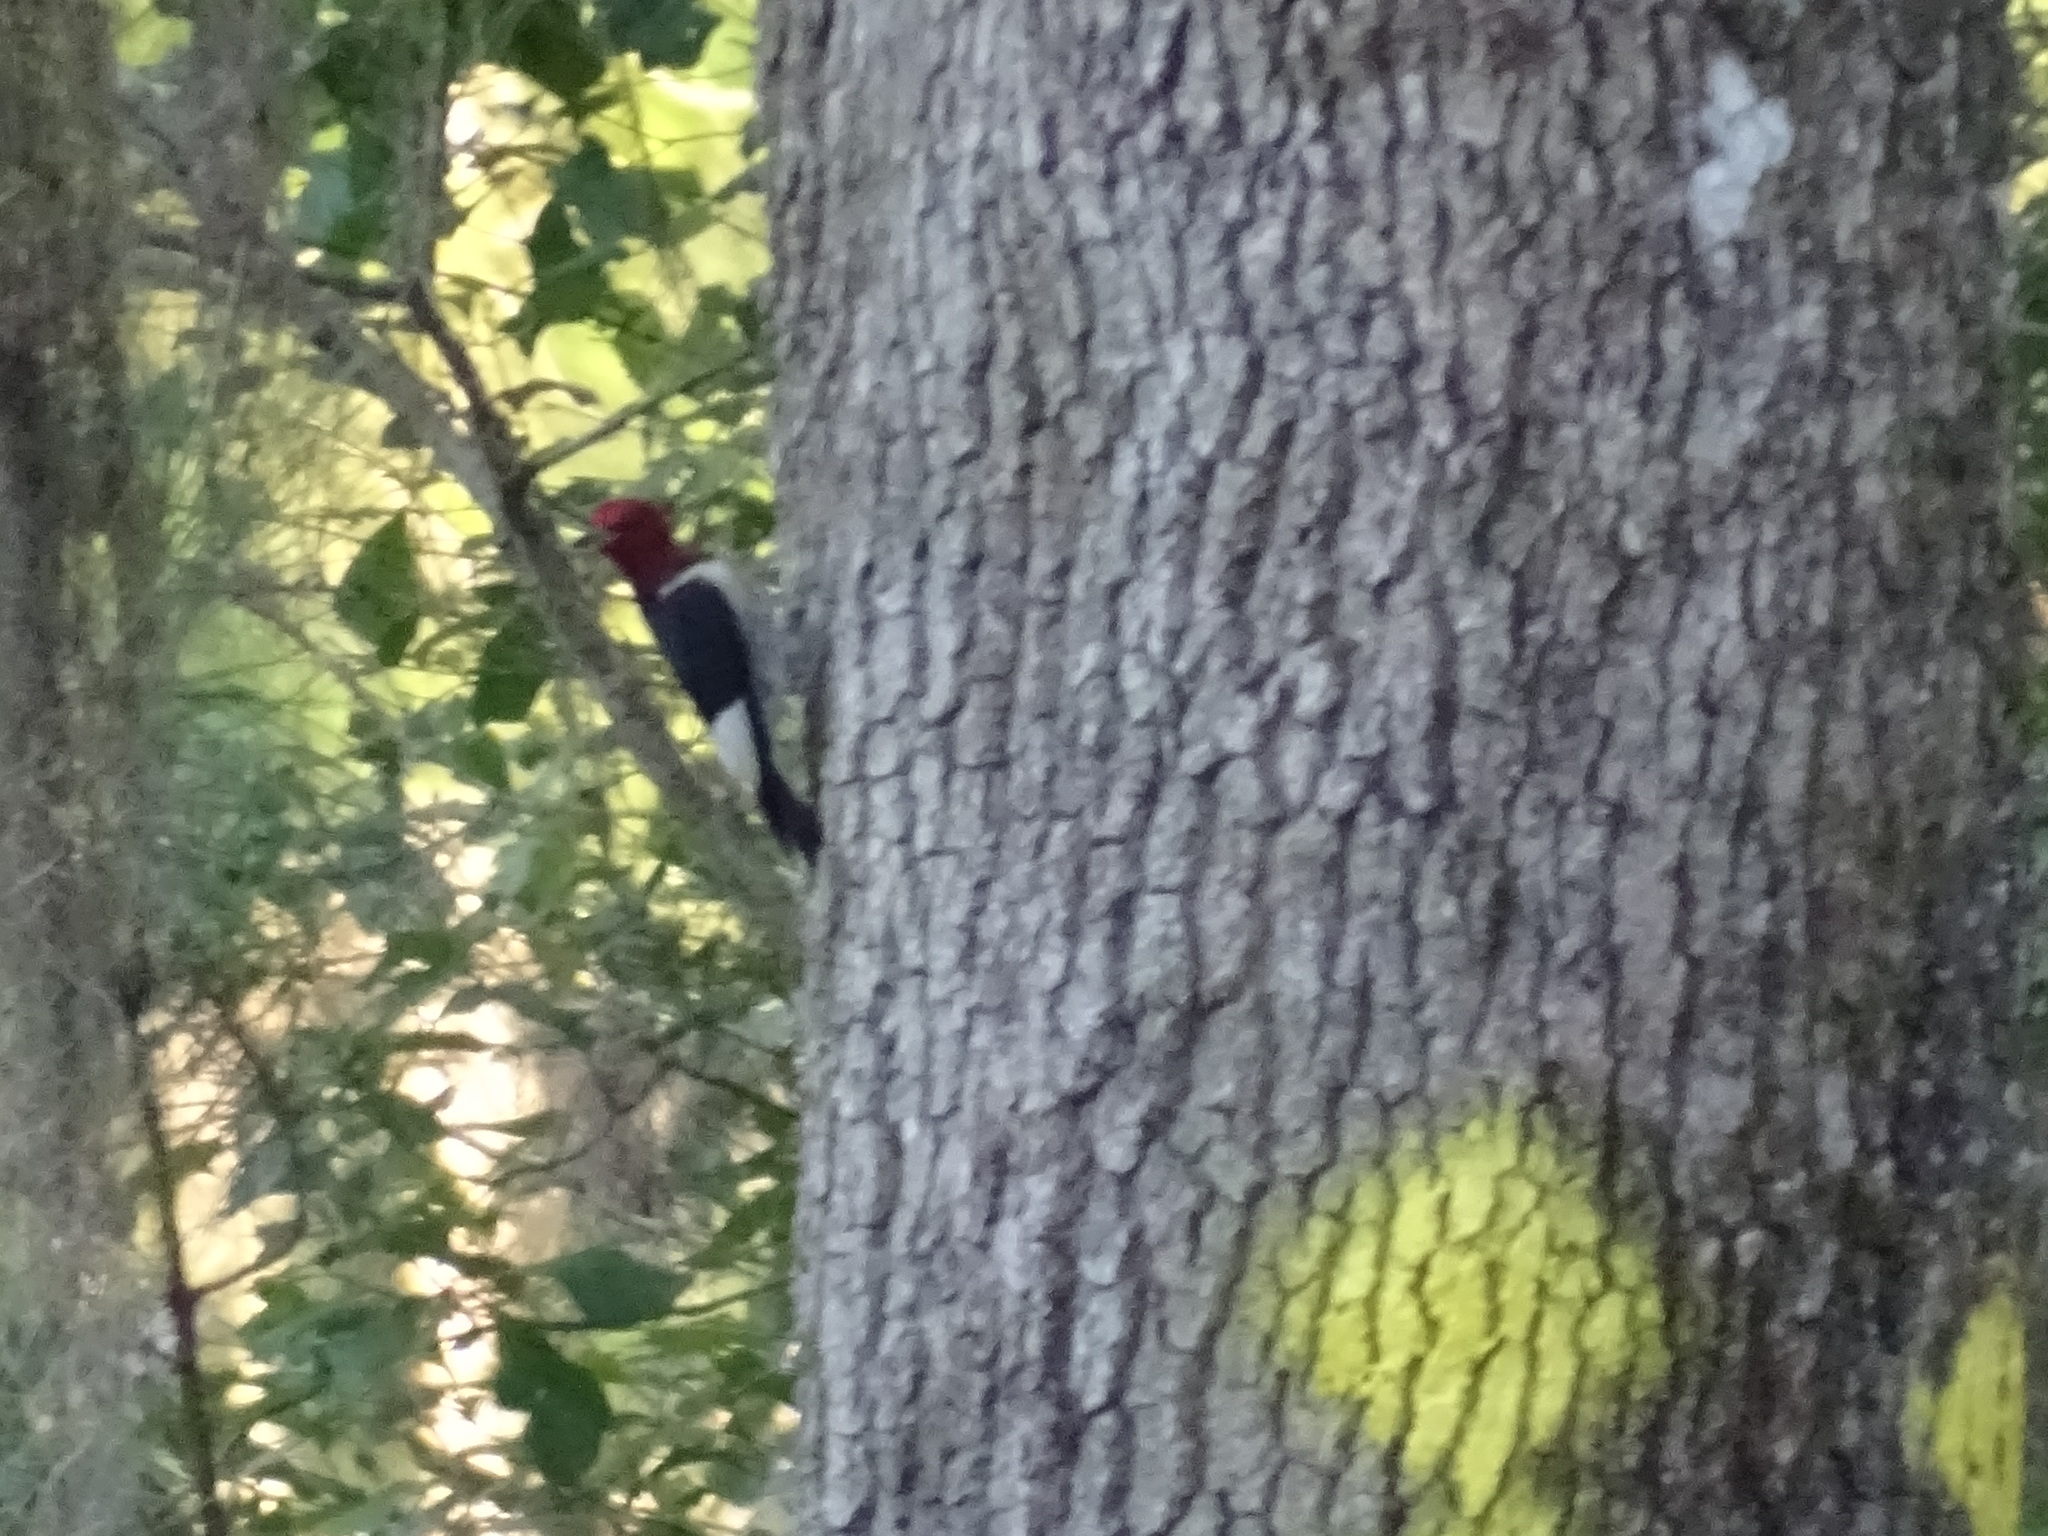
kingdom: Animalia
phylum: Chordata
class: Aves
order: Piciformes
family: Picidae
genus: Melanerpes
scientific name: Melanerpes erythrocephalus
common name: Red-headed woodpecker
